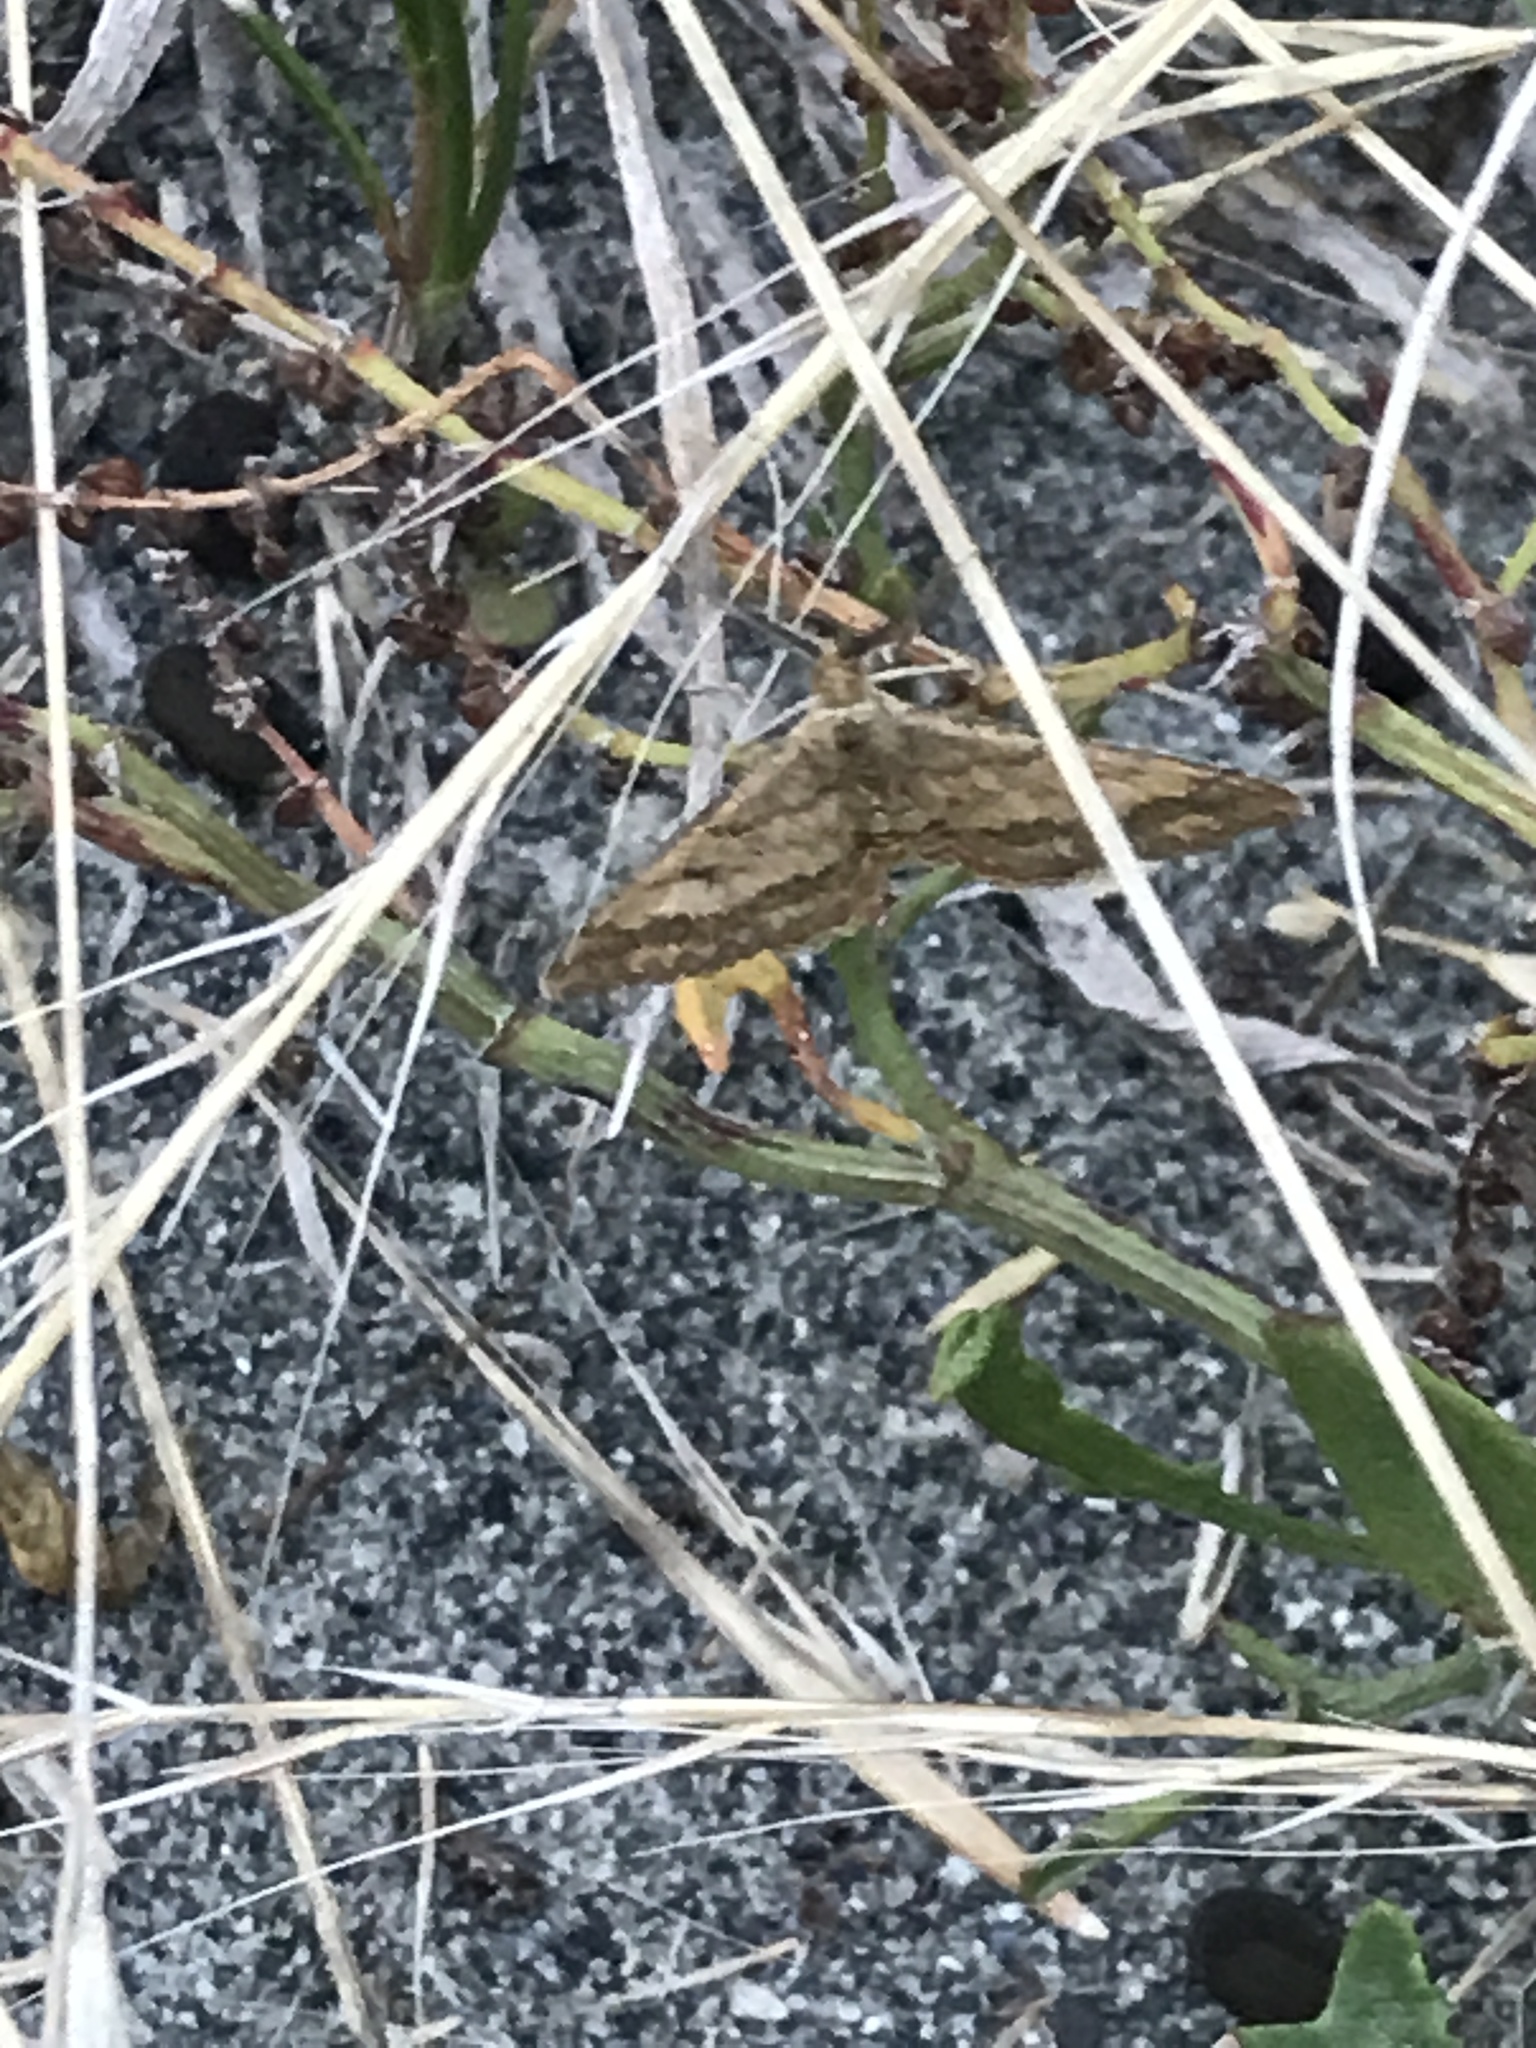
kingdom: Animalia
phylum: Arthropoda
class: Insecta
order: Lepidoptera
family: Geometridae
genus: Scopula
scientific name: Scopula rubraria
